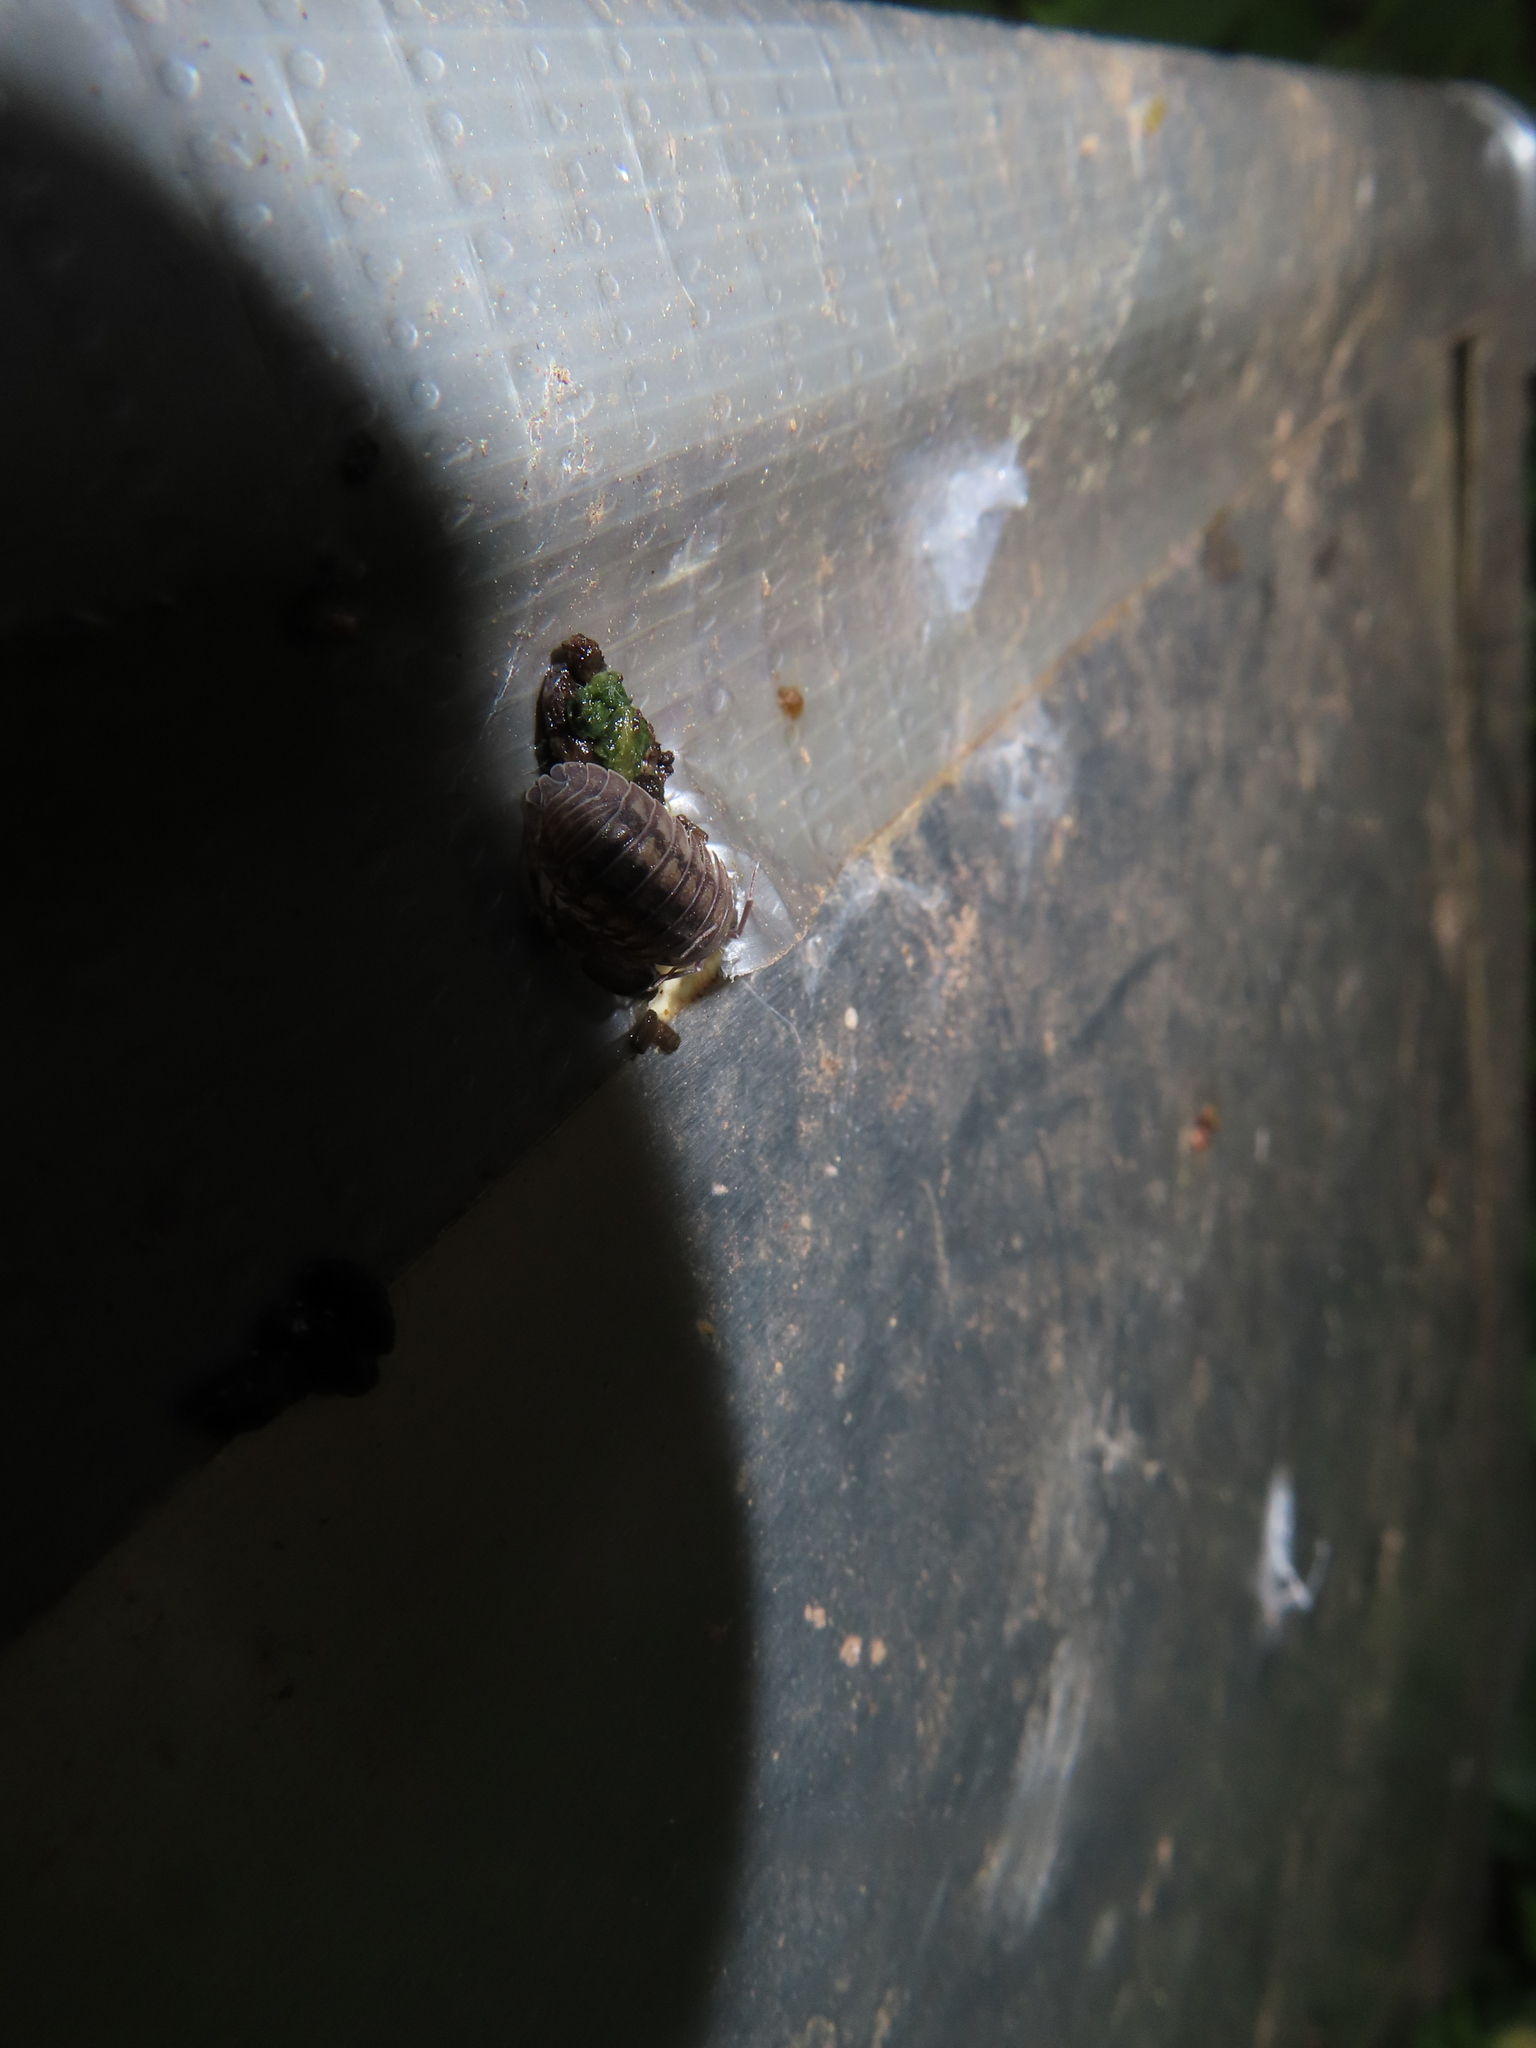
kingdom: Animalia
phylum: Arthropoda
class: Malacostraca
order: Isopoda
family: Armadillidiidae
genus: Armadillidium
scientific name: Armadillidium nasatum
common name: Isopod
